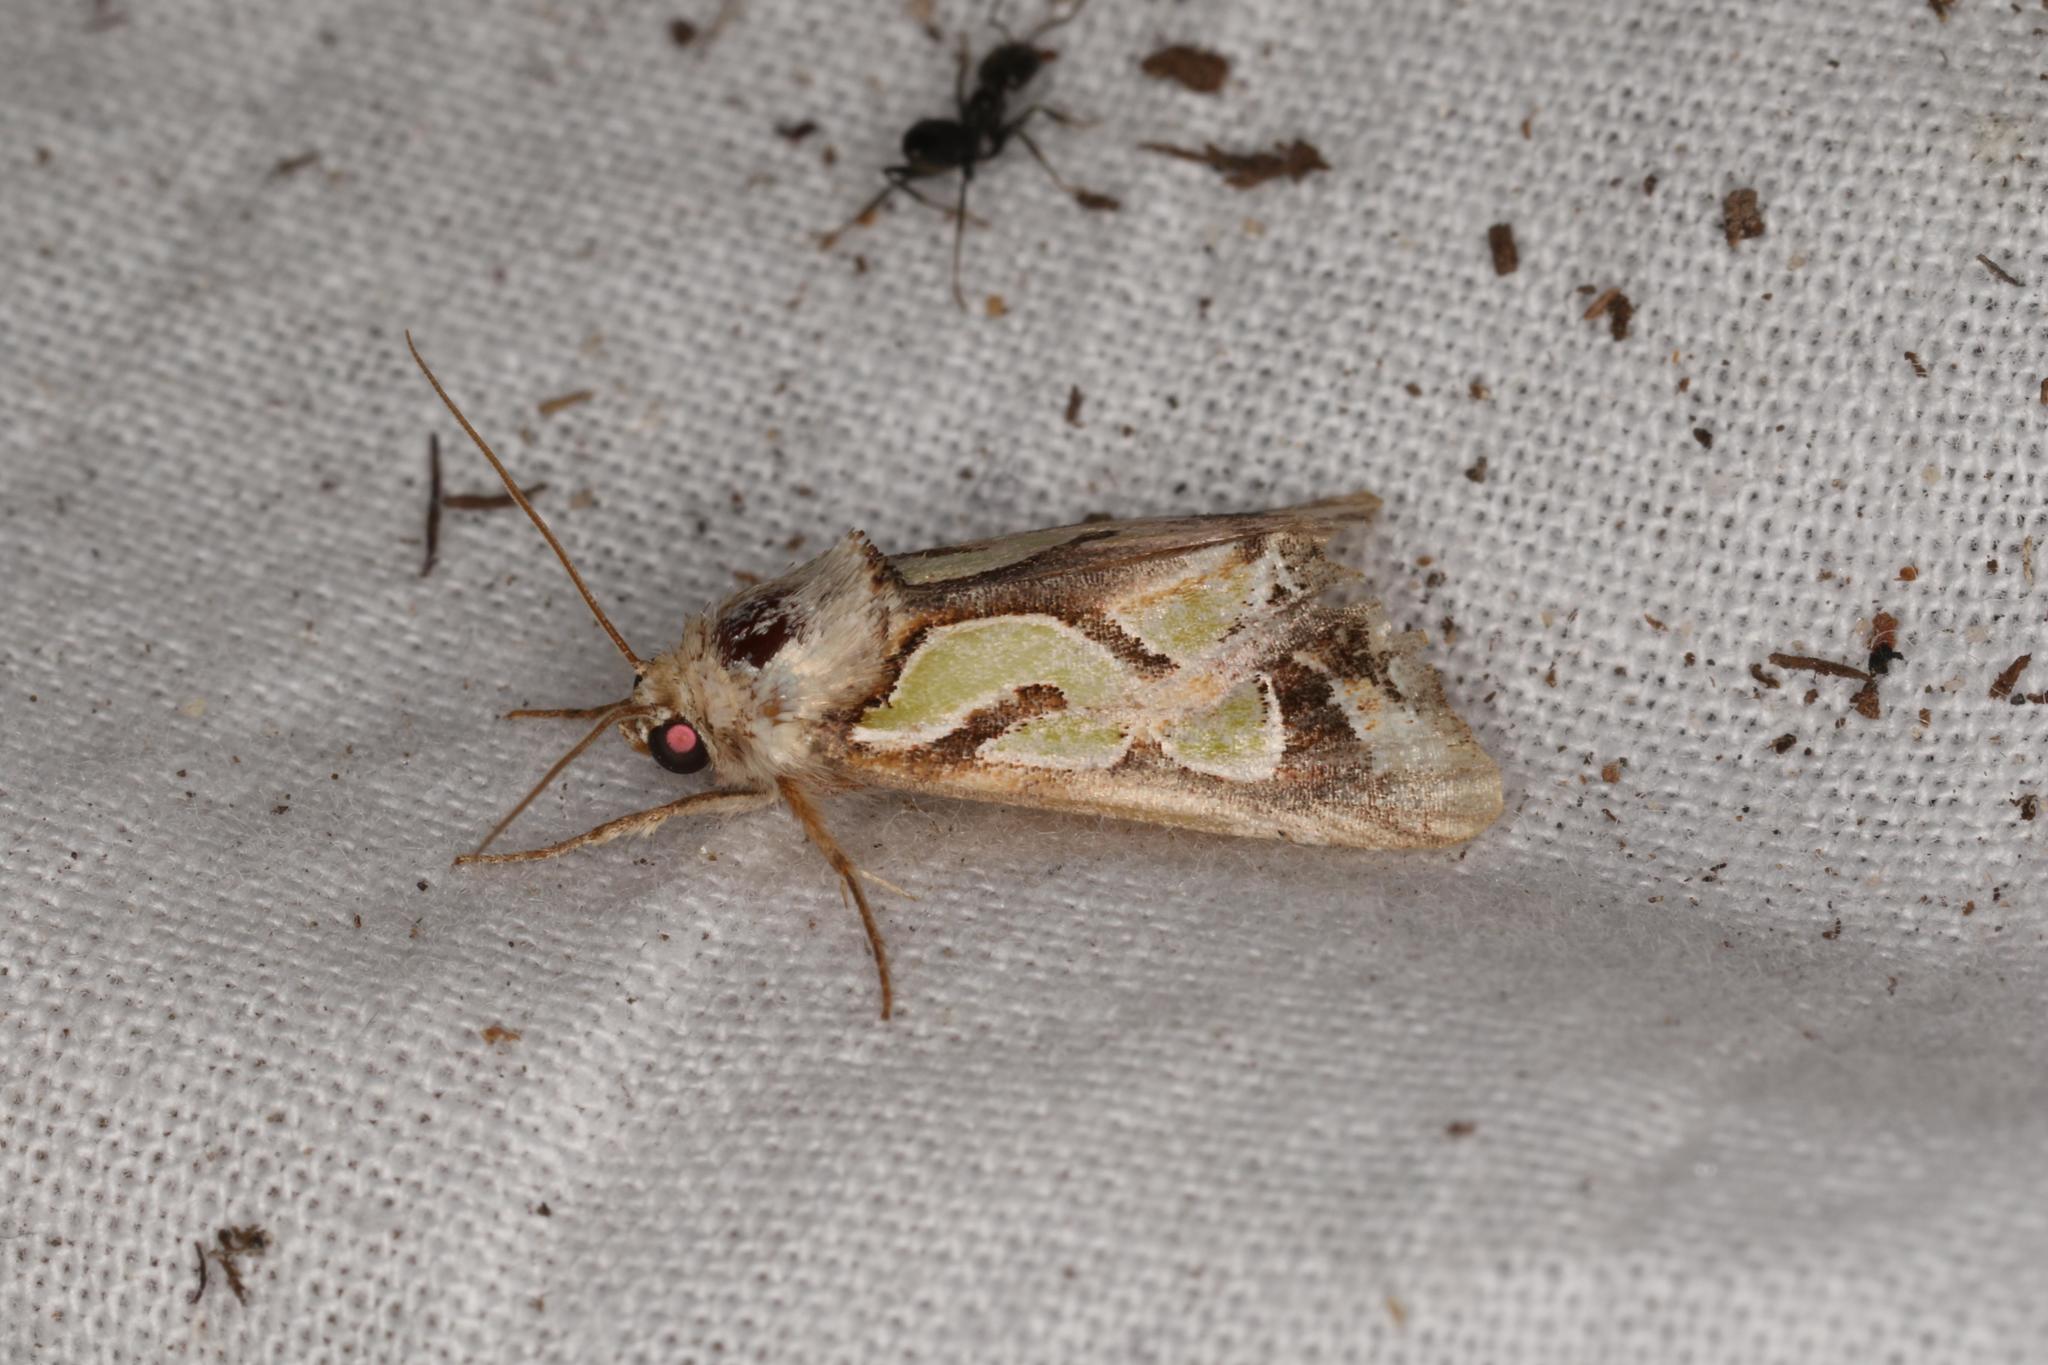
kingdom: Animalia
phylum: Arthropoda
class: Insecta
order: Lepidoptera
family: Noctuidae
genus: Cosmodes
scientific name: Cosmodes elegans
